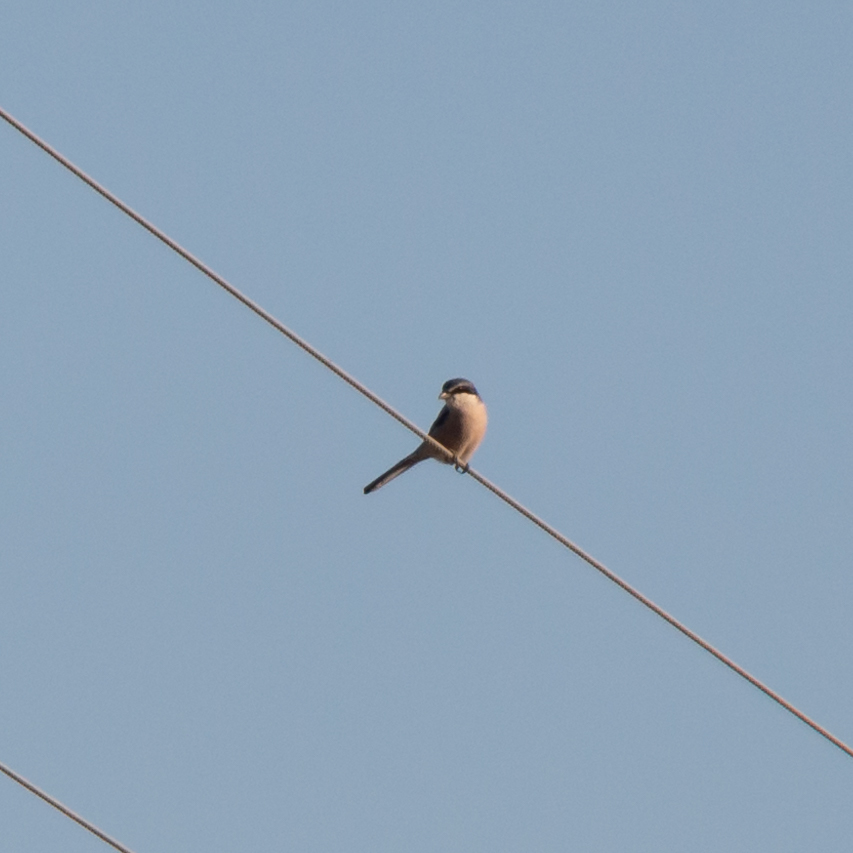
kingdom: Animalia
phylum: Chordata
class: Aves
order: Passeriformes
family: Laniidae
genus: Lanius
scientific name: Lanius meridionalis
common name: Iberian grey shrike
